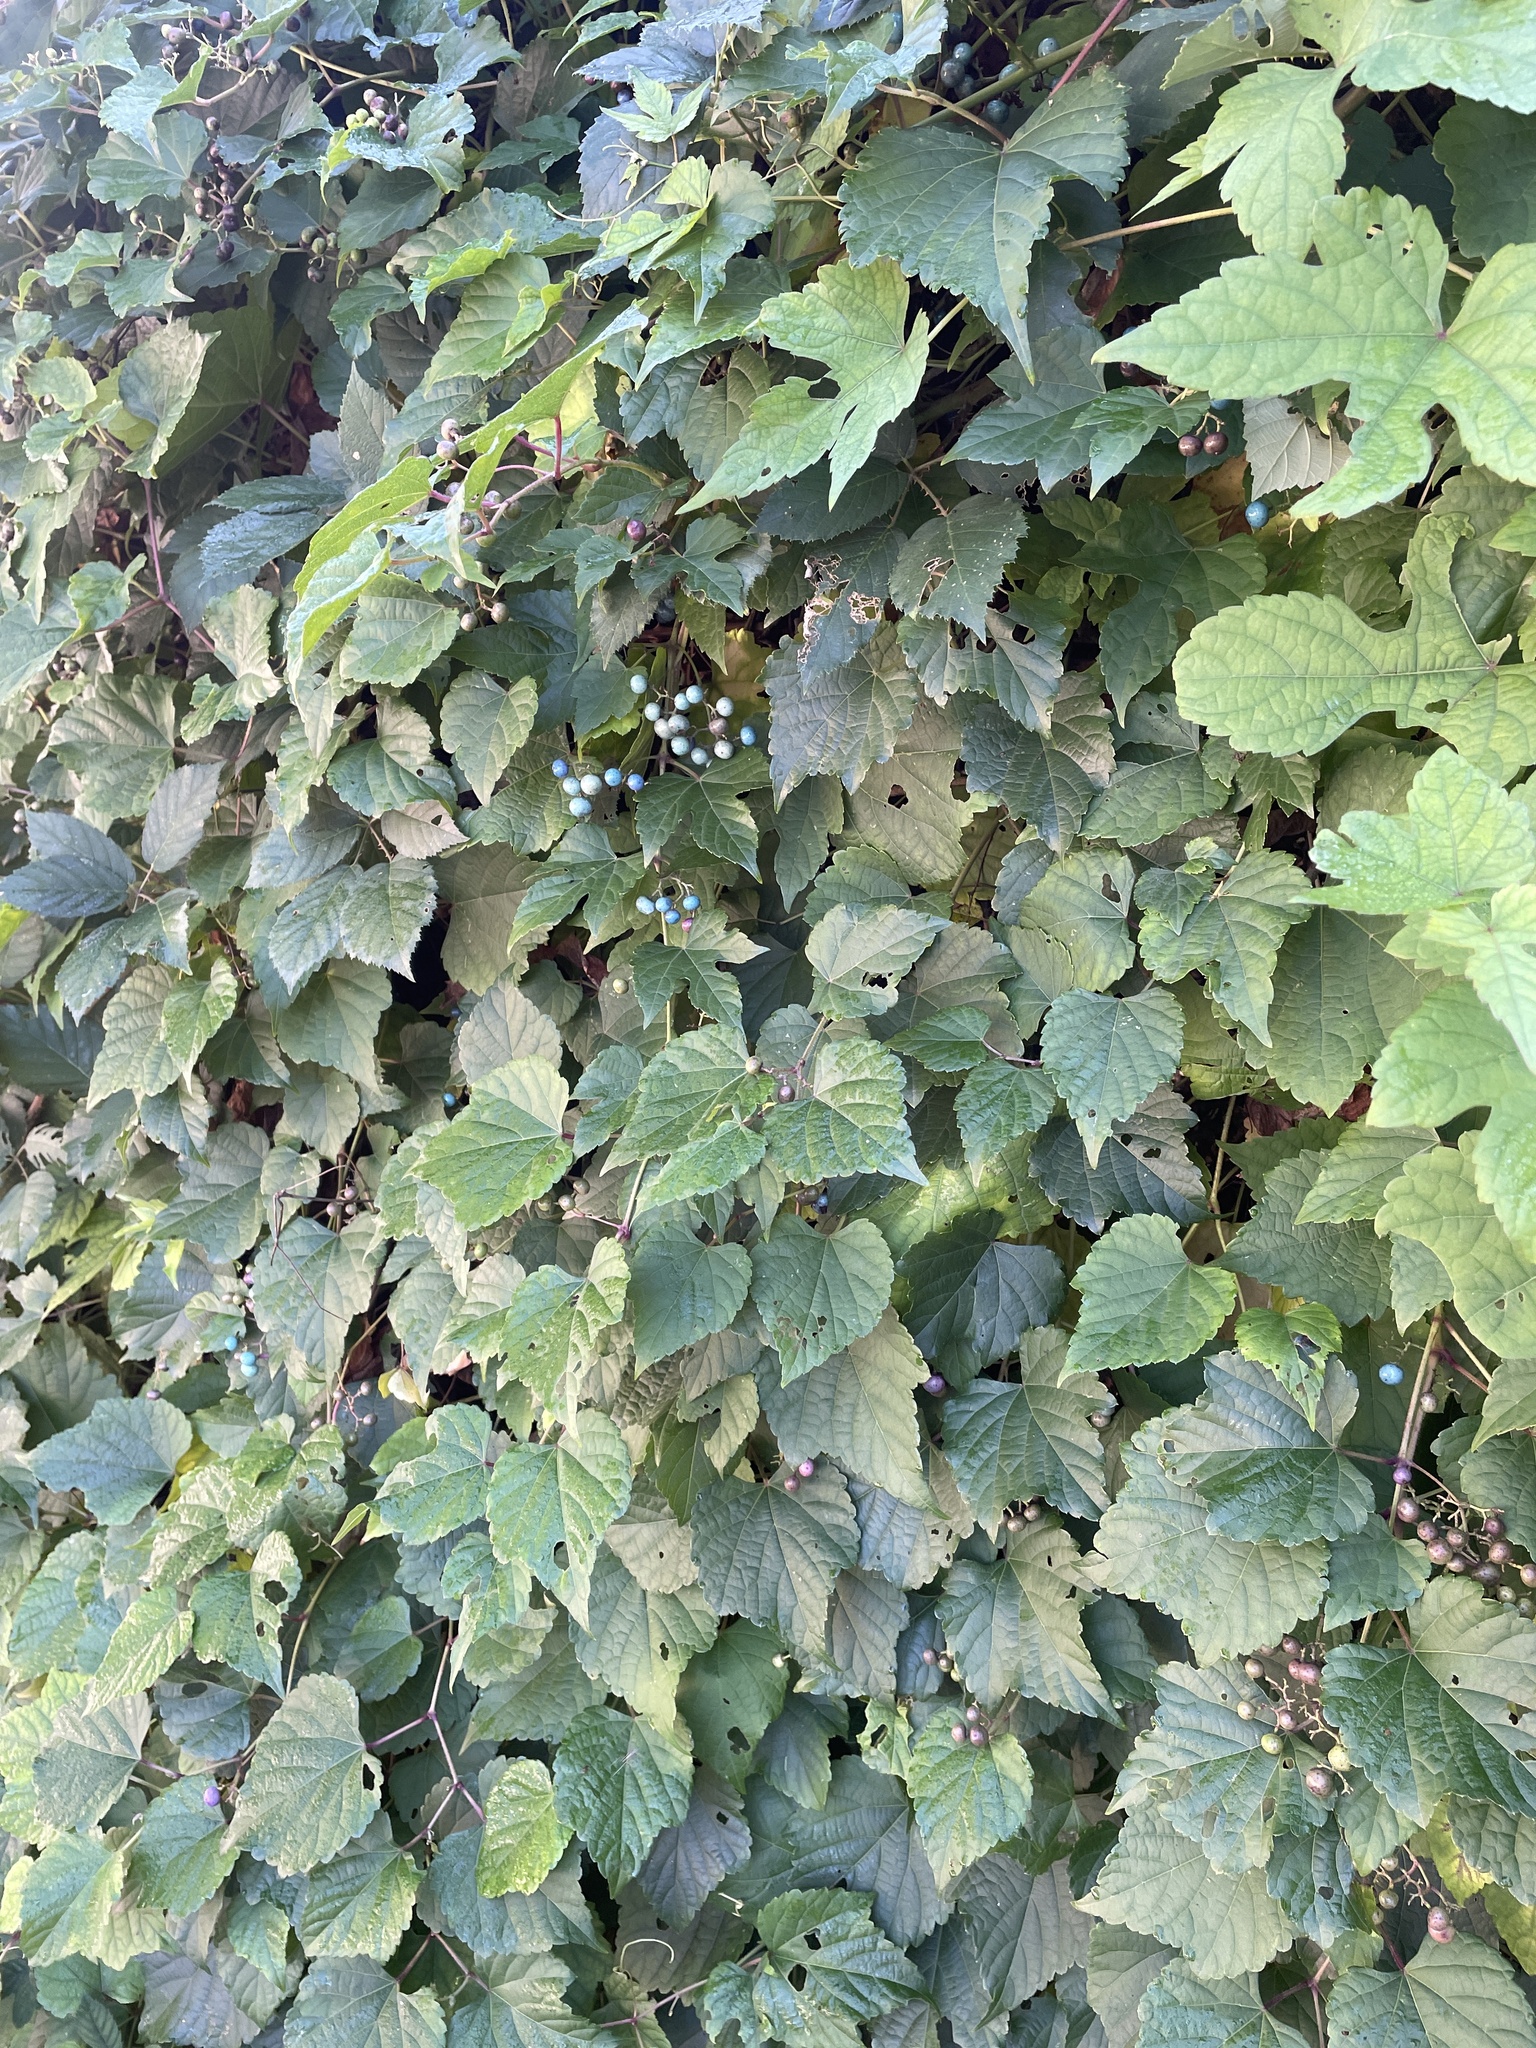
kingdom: Plantae
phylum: Tracheophyta
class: Magnoliopsida
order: Vitales
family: Vitaceae
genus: Ampelopsis
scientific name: Ampelopsis glandulosa
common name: Amur peppervine
